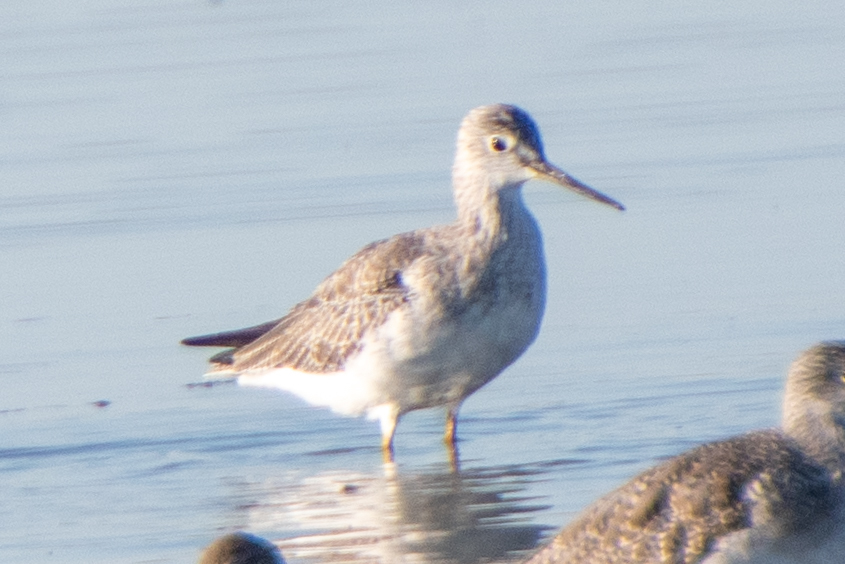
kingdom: Animalia
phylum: Chordata
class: Aves
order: Charadriiformes
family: Scolopacidae
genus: Tringa
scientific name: Tringa melanoleuca
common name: Greater yellowlegs
